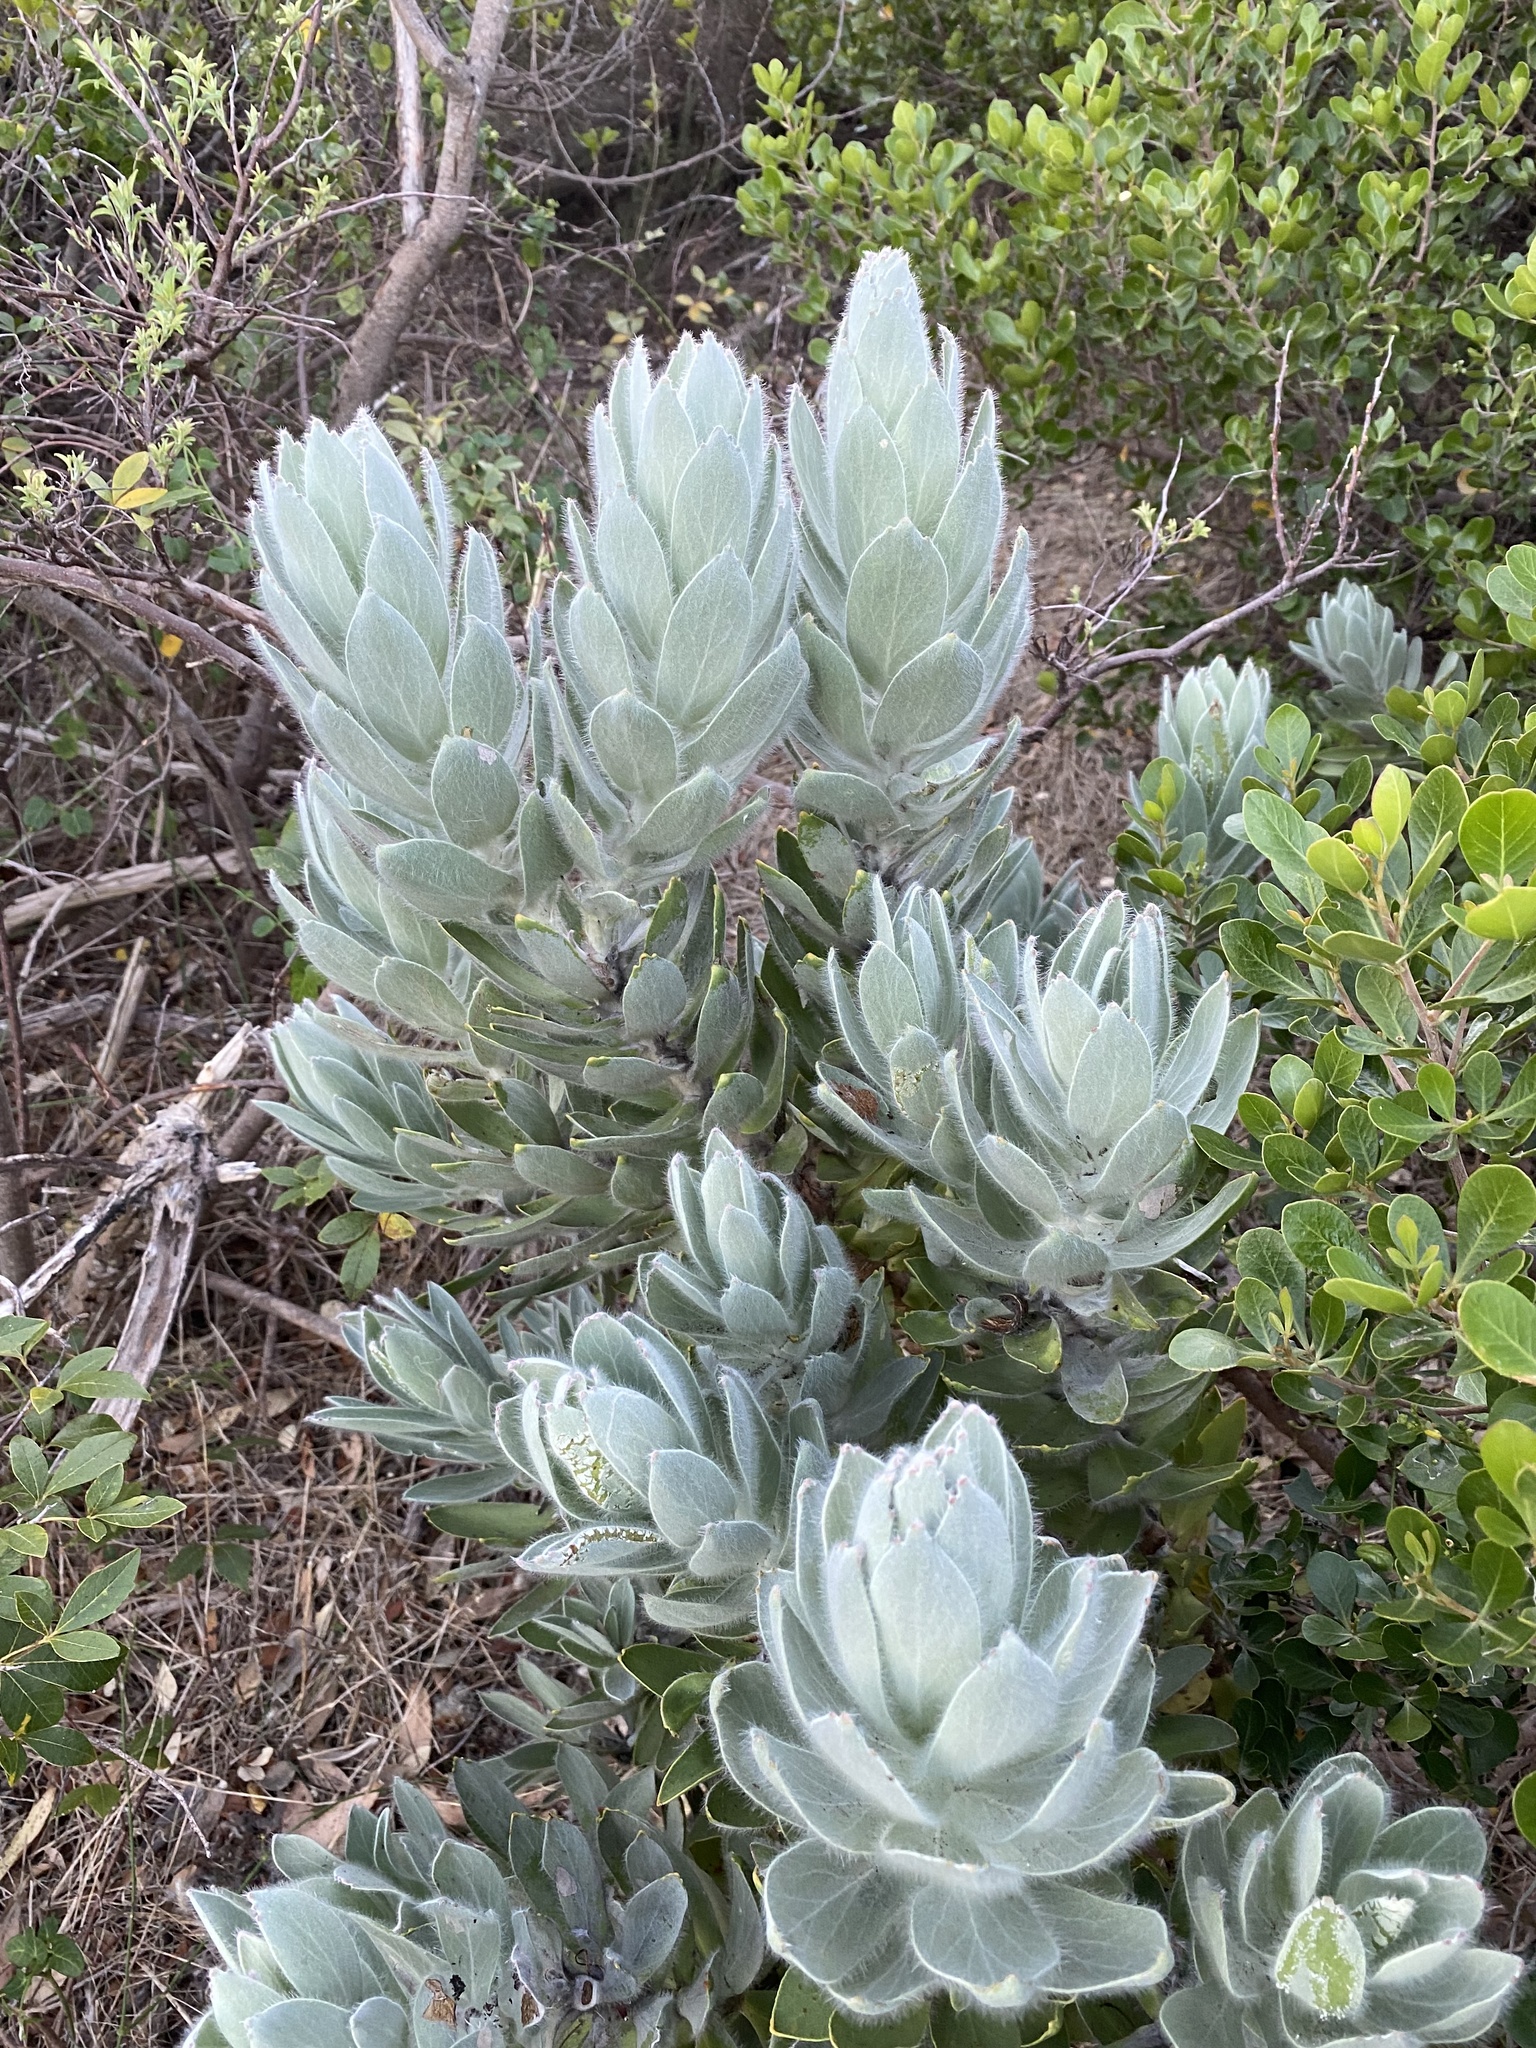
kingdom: Plantae
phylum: Tracheophyta
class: Magnoliopsida
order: Proteales
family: Proteaceae
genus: Leucospermum
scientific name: Leucospermum conocarpodendron
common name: Tree pincushion
